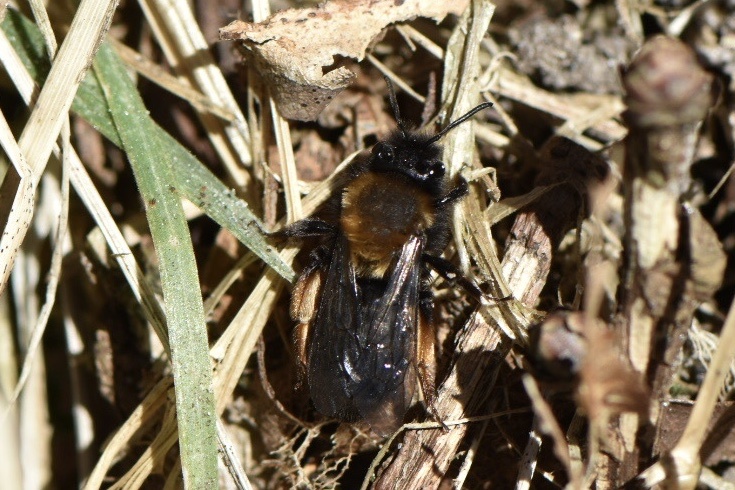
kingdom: Animalia
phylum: Arthropoda
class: Insecta
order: Hymenoptera
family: Andrenidae
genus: Andrena
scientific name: Andrena clarkella
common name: Clarke's mining bee
